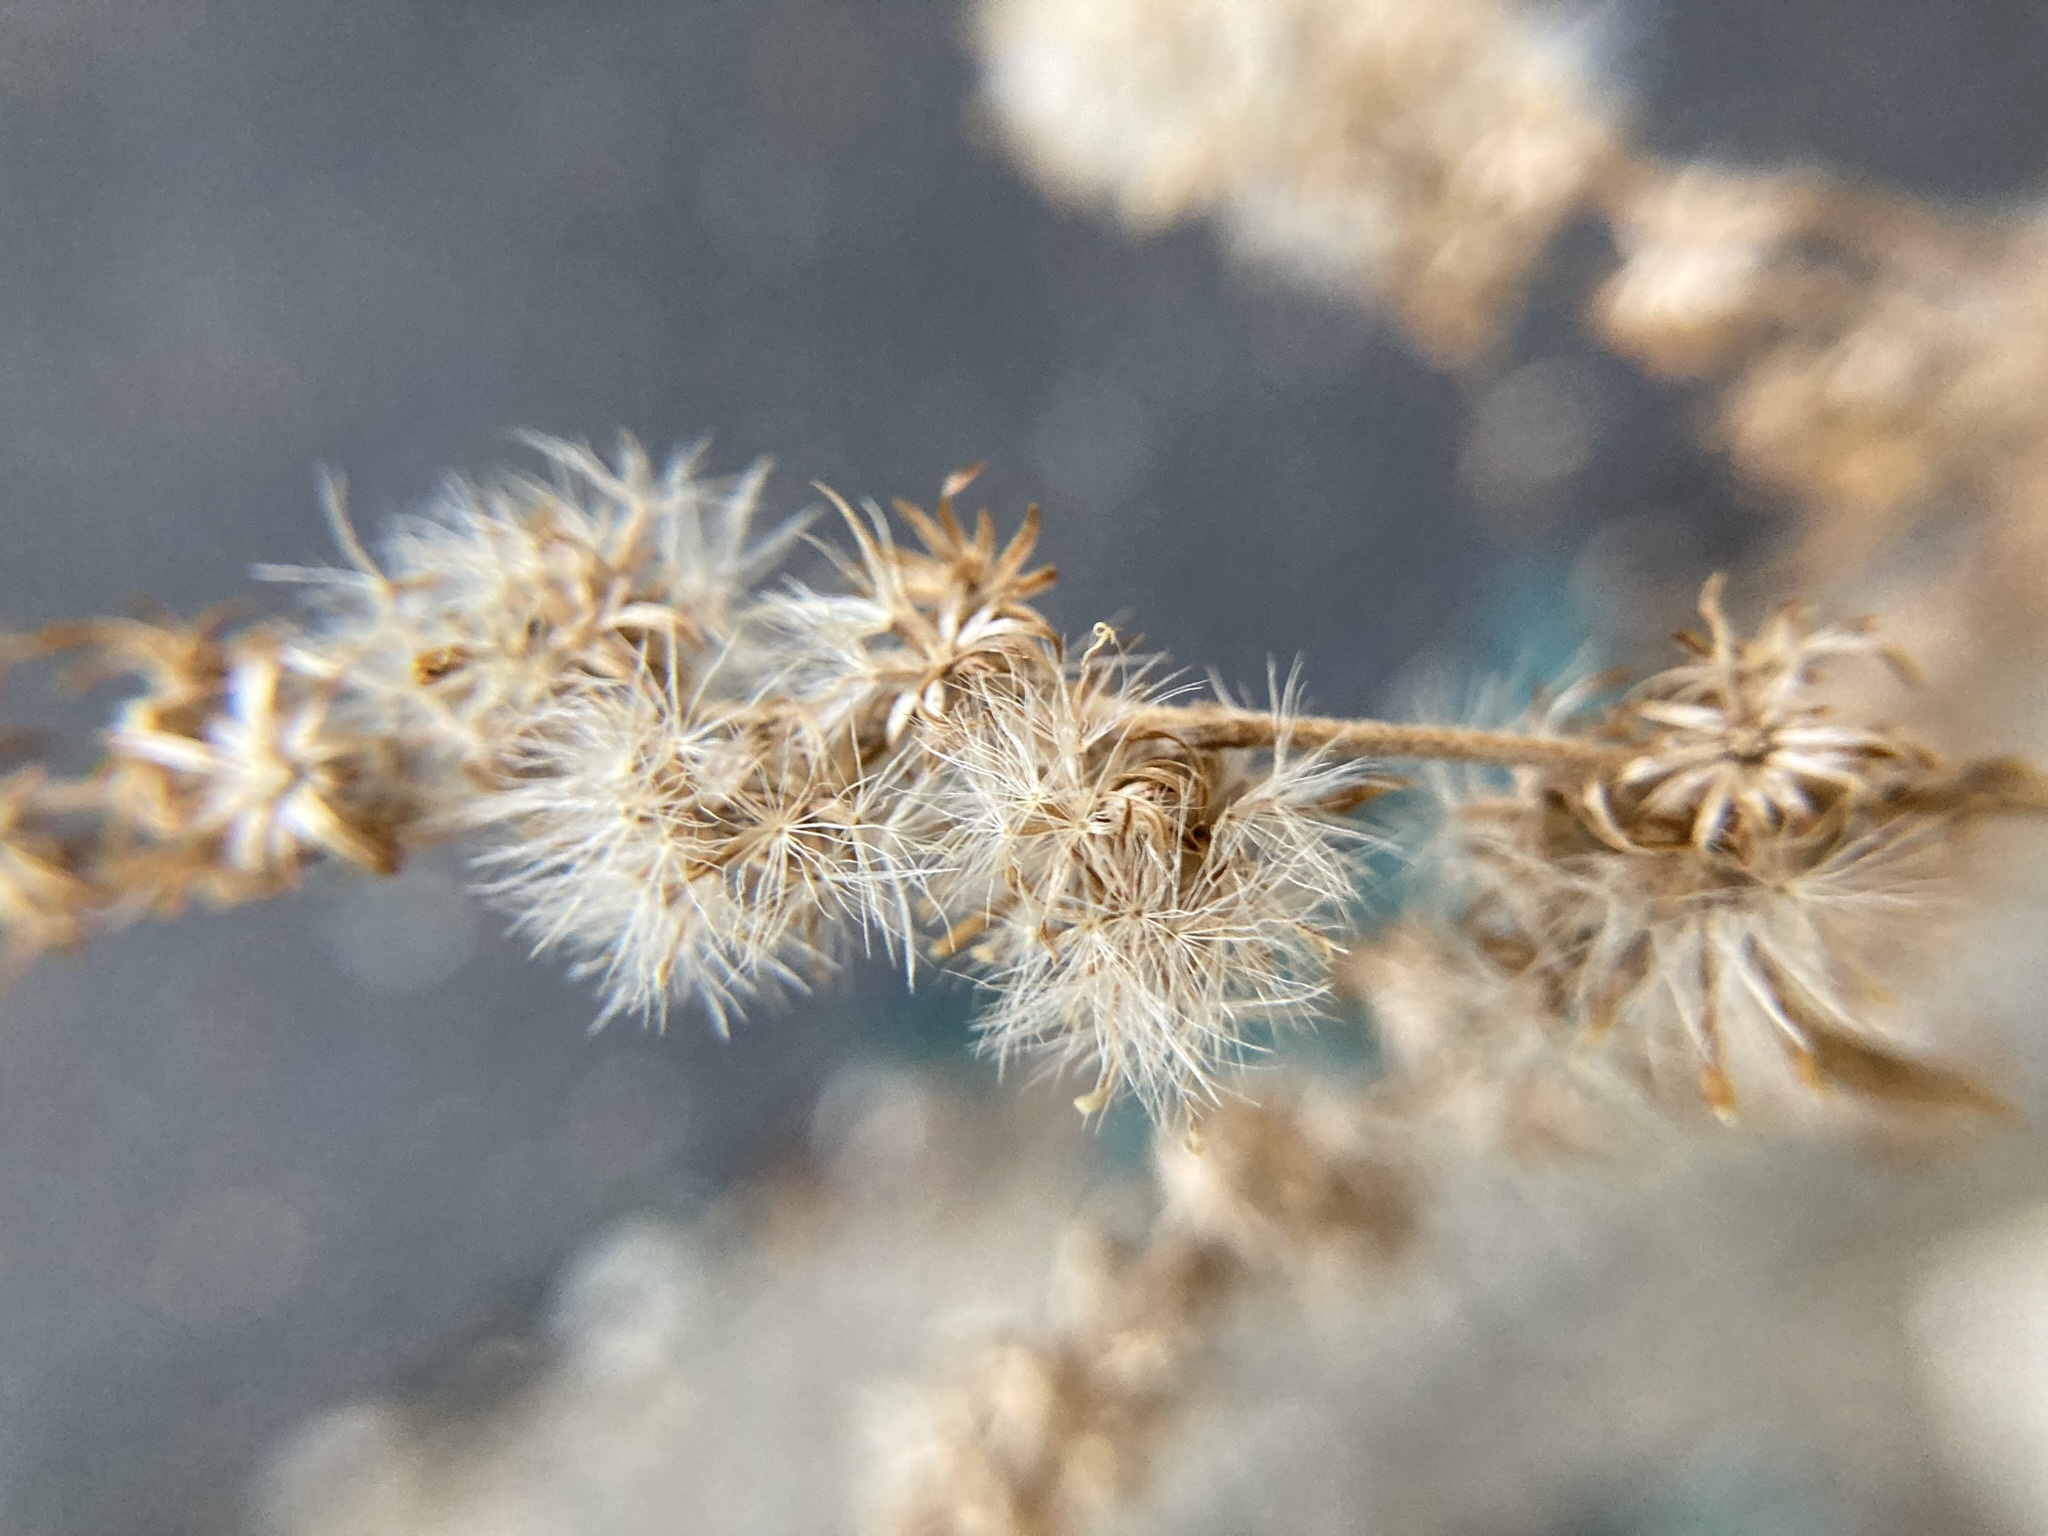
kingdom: Plantae
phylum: Tracheophyta
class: Magnoliopsida
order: Asterales
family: Asteraceae
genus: Solidago
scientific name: Solidago rugosa
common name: Rough-stemmed goldenrod
